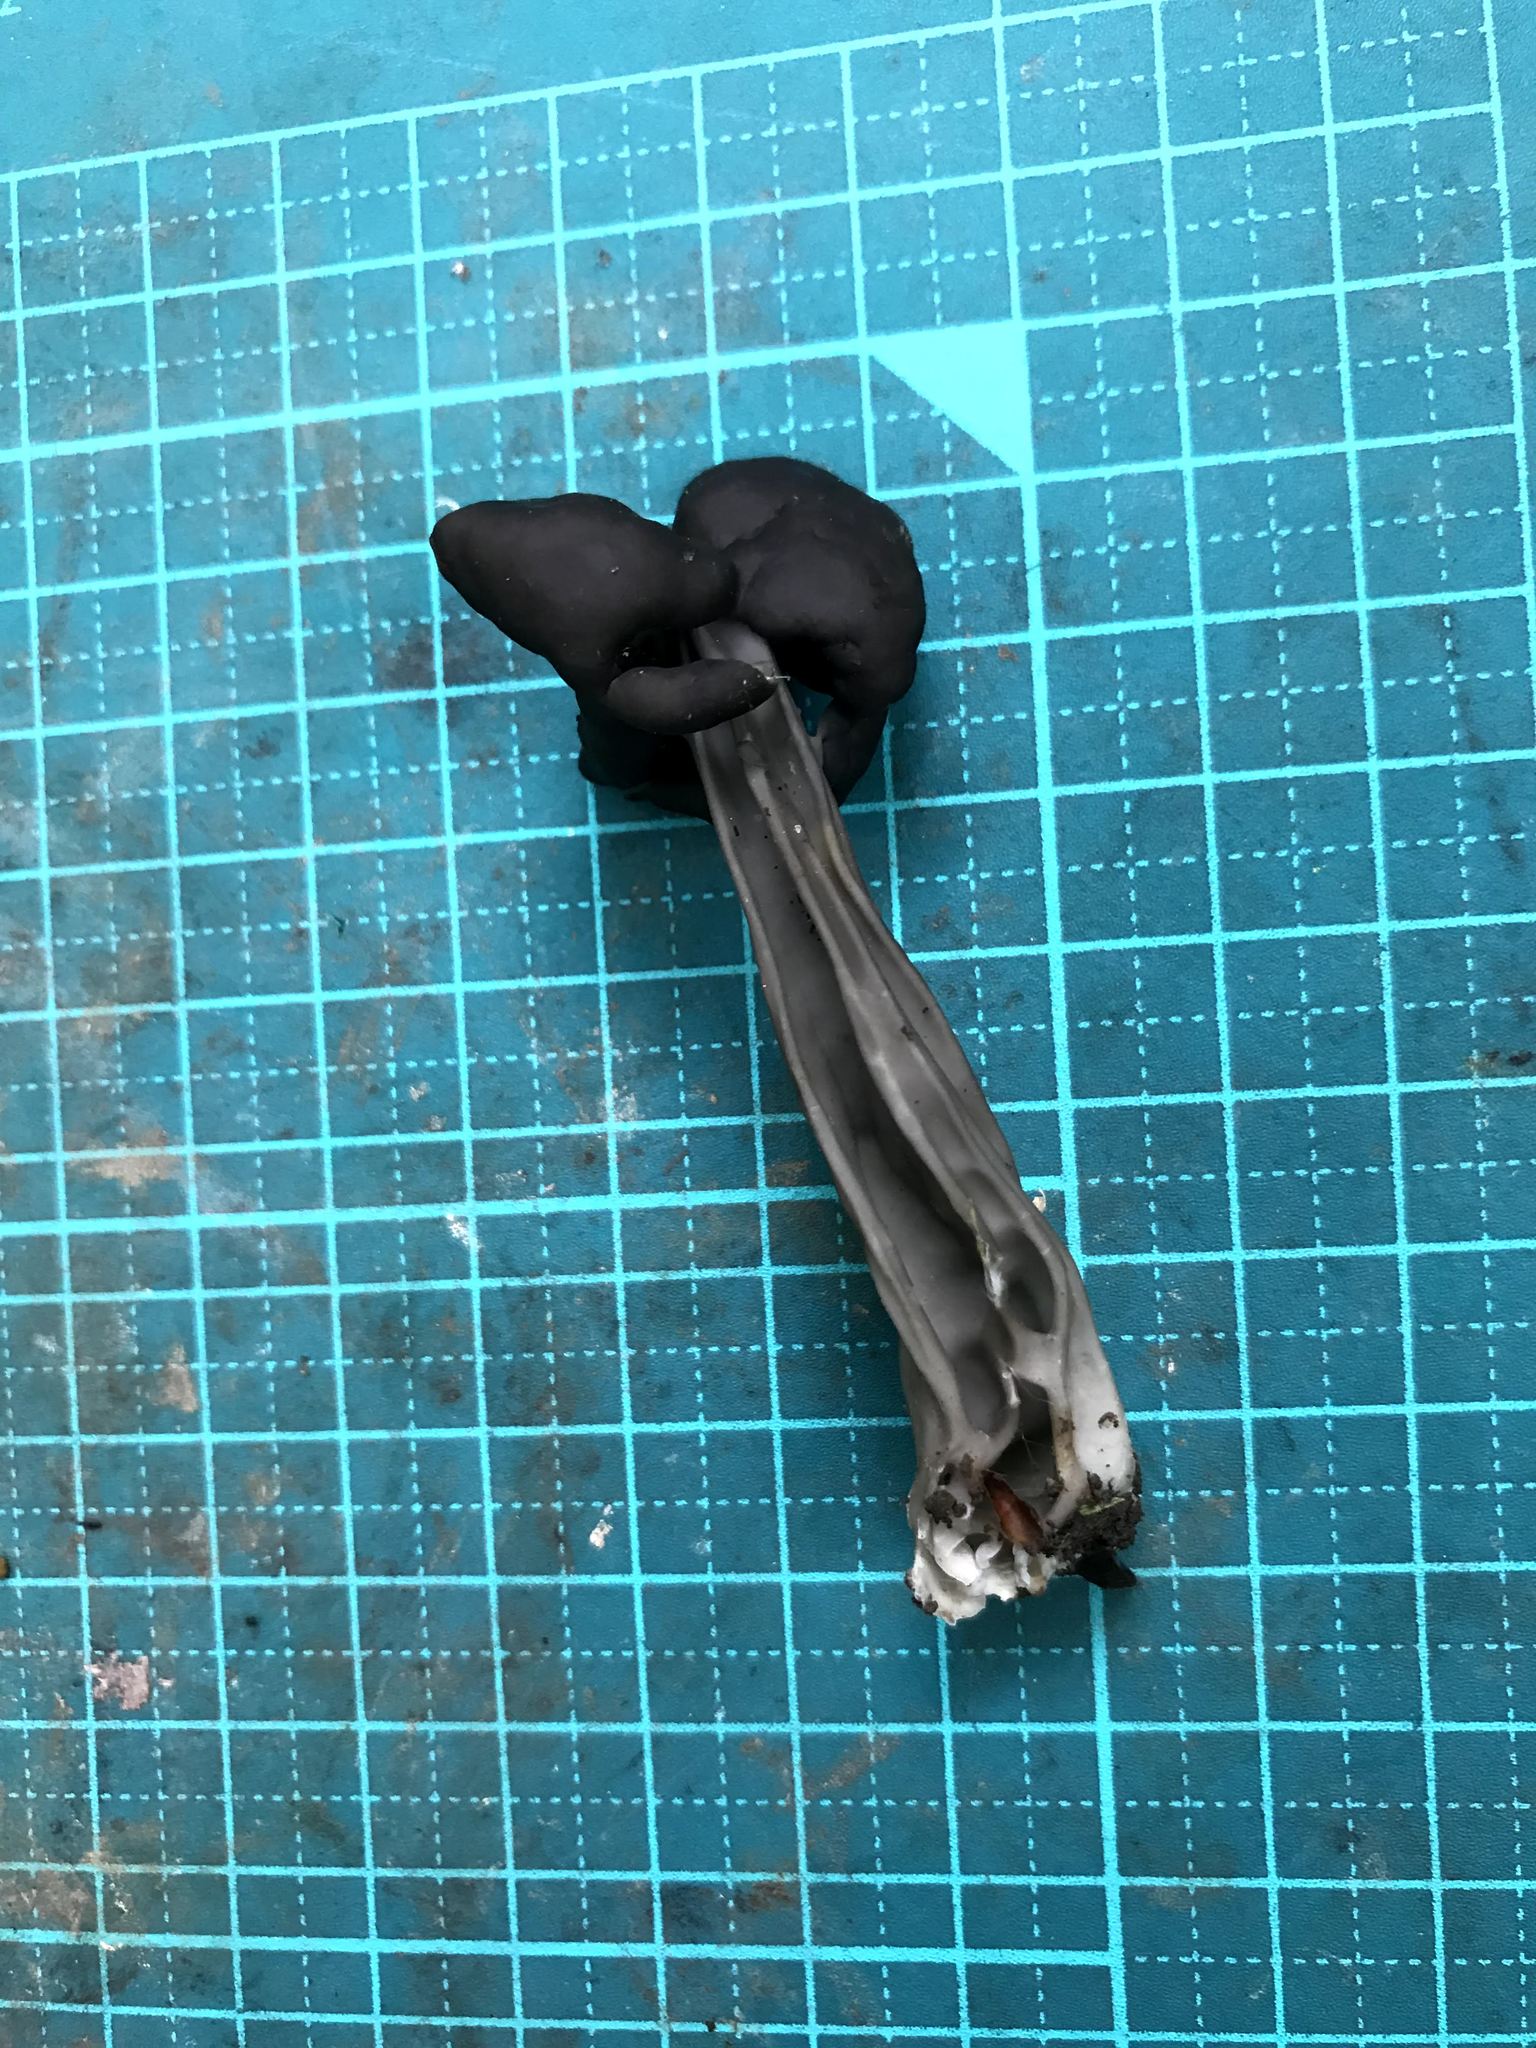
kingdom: Fungi
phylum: Ascomycota
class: Pezizomycetes
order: Pezizales
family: Helvellaceae
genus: Helvella
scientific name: Helvella lacunosa
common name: Elfin saddle
